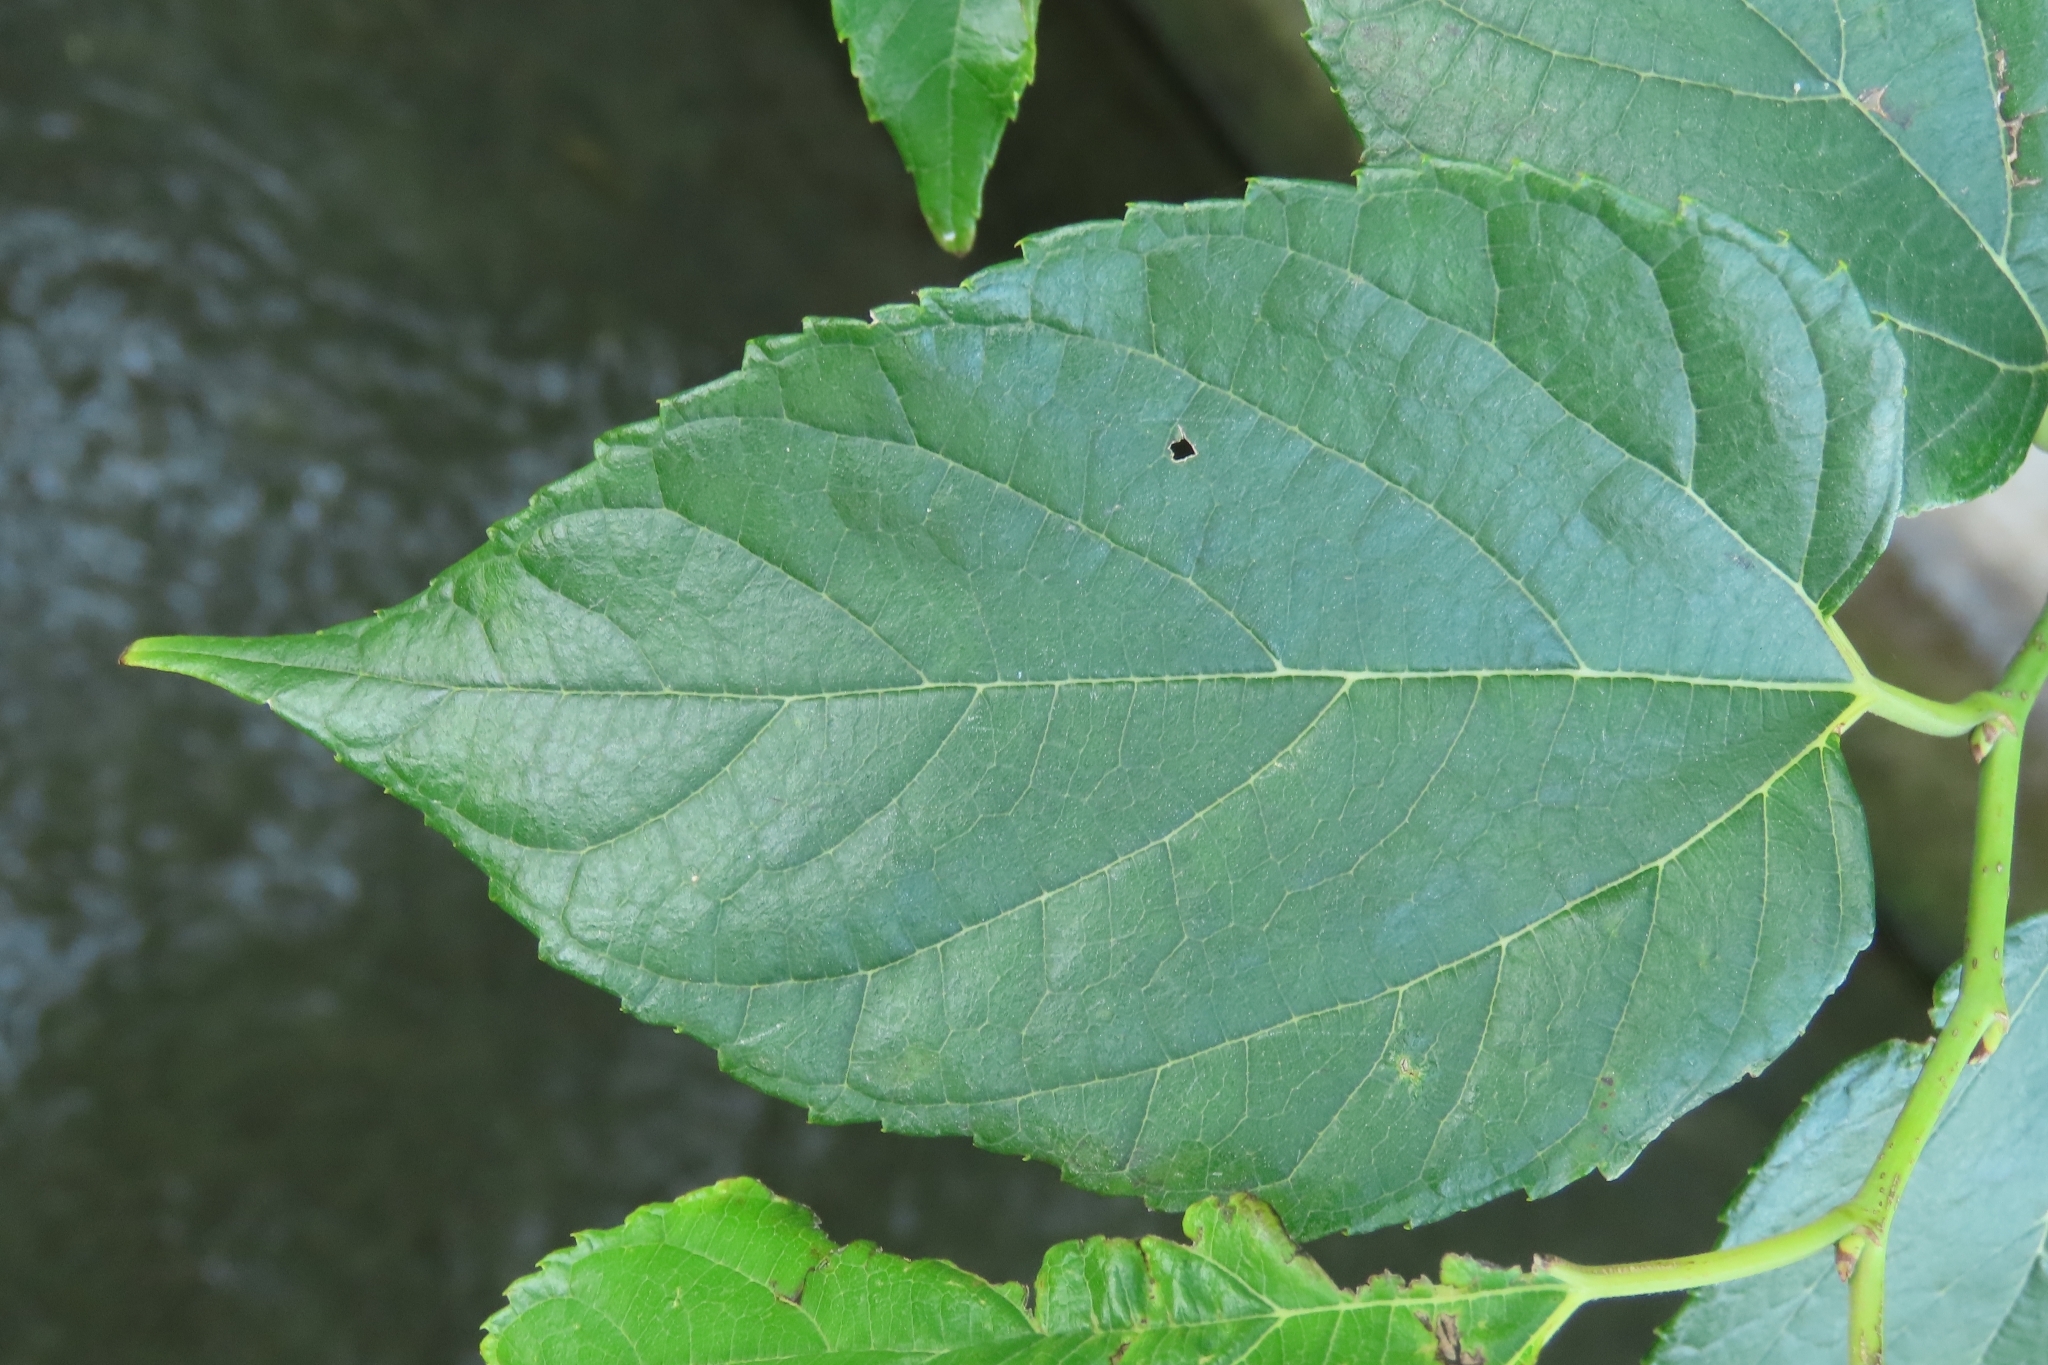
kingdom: Plantae
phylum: Tracheophyta
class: Magnoliopsida
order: Rosales
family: Moraceae
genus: Morus
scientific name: Morus indica
